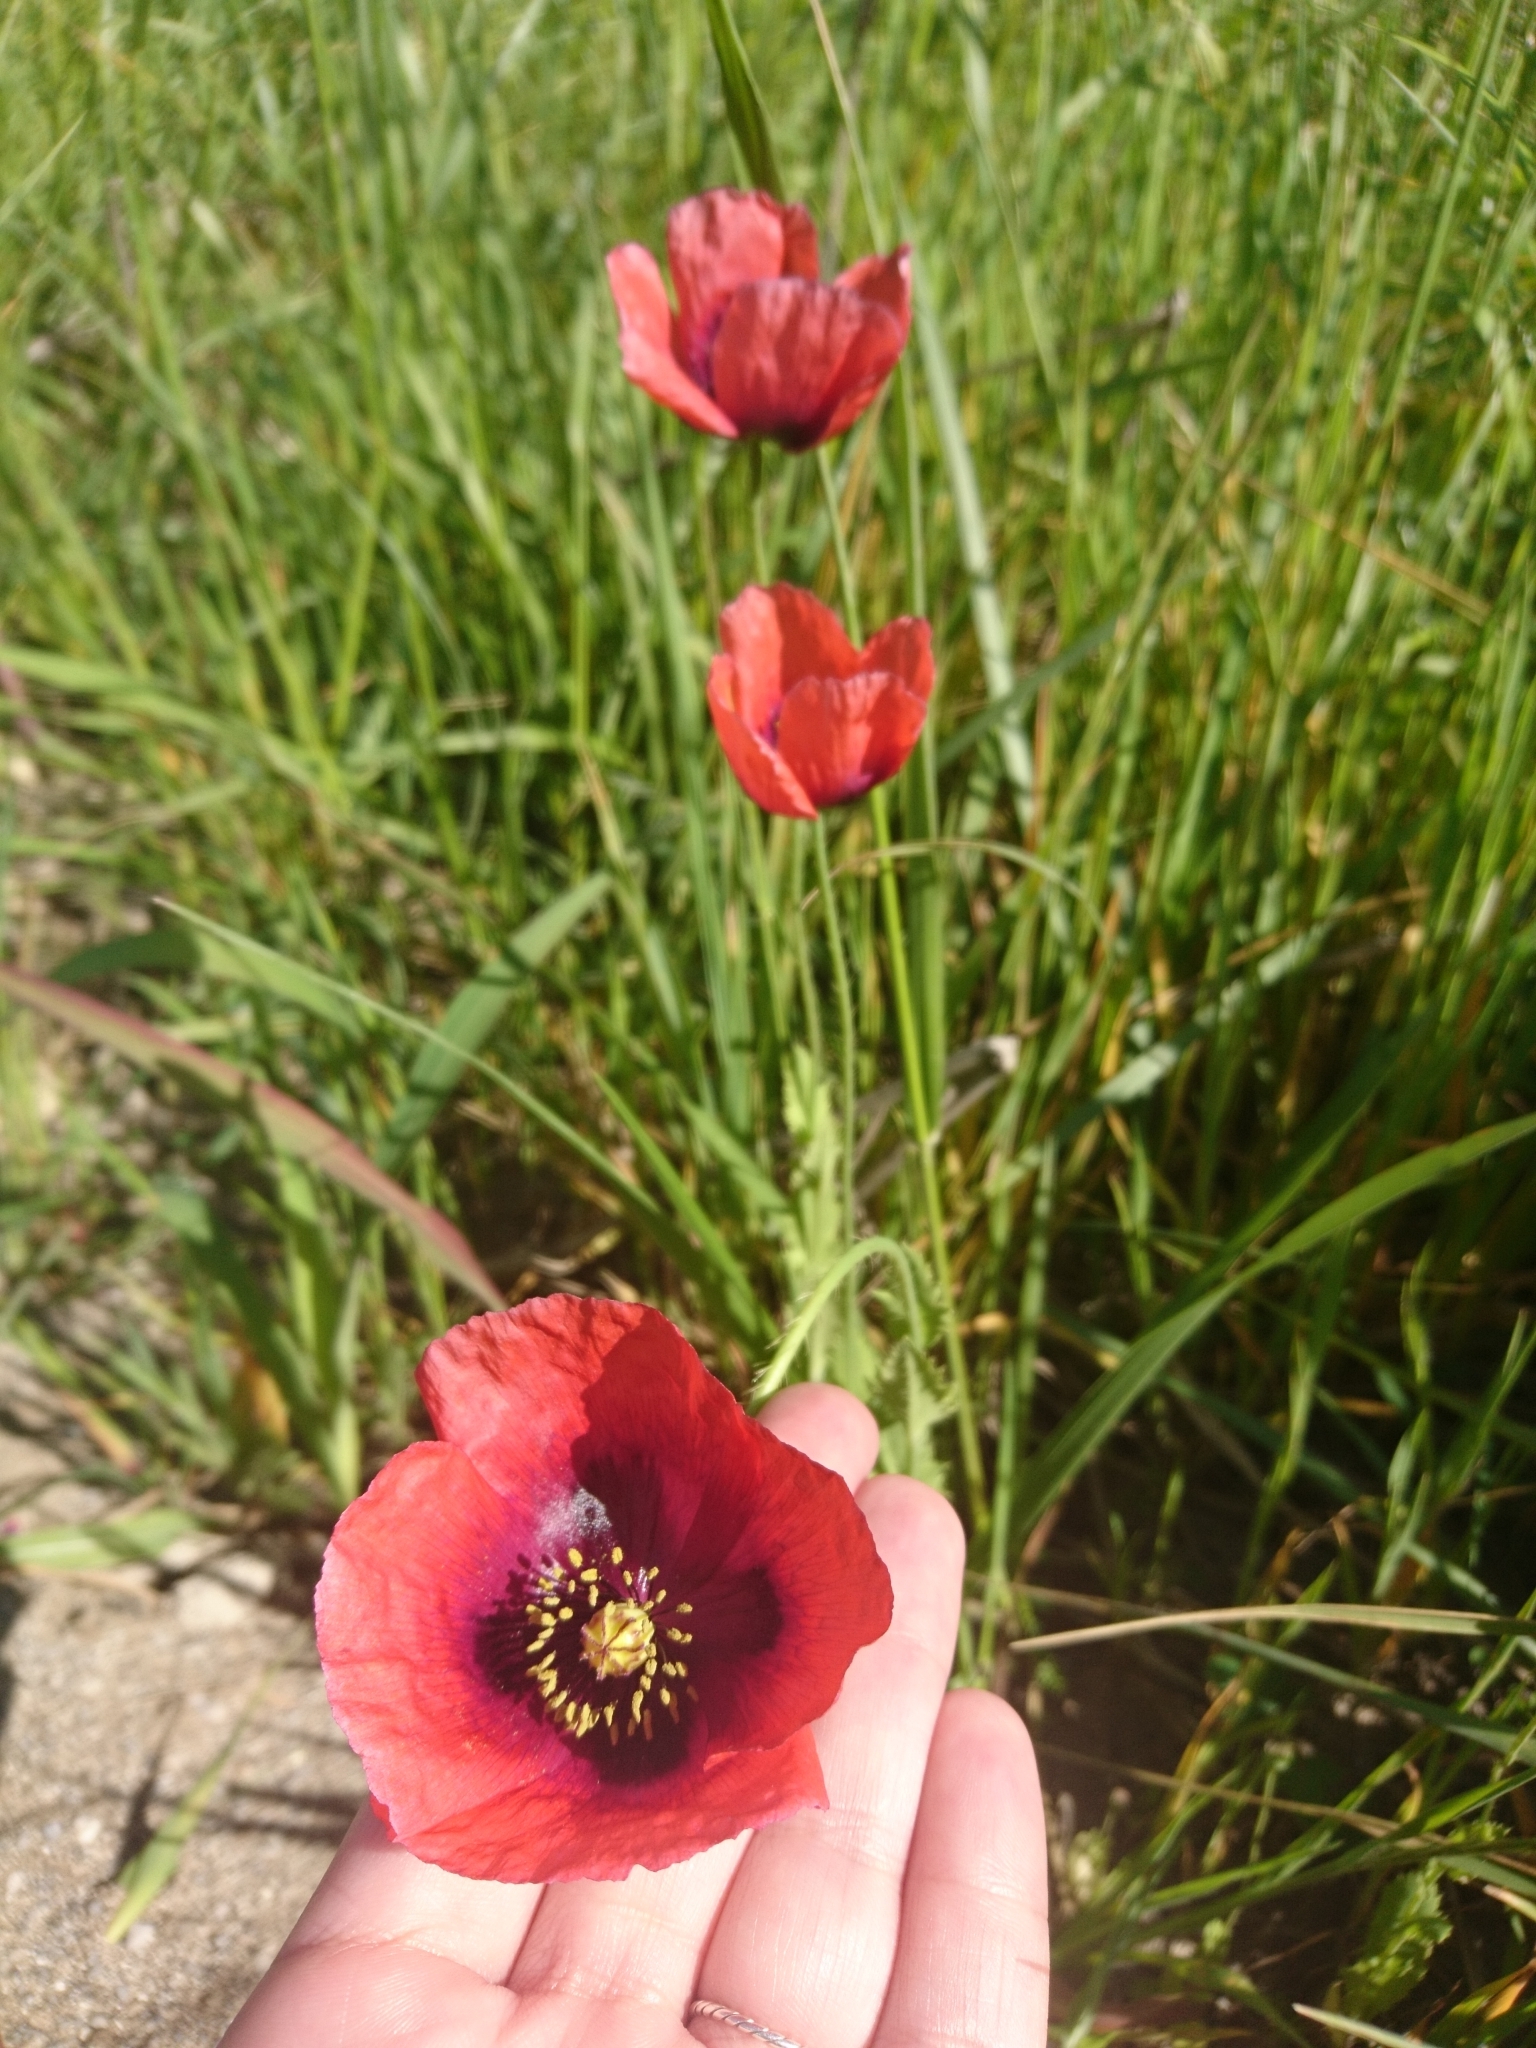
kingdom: Plantae
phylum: Tracheophyta
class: Magnoliopsida
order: Ranunculales
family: Papaveraceae
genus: Papaver
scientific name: Papaver somniferum
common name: Opium poppy
